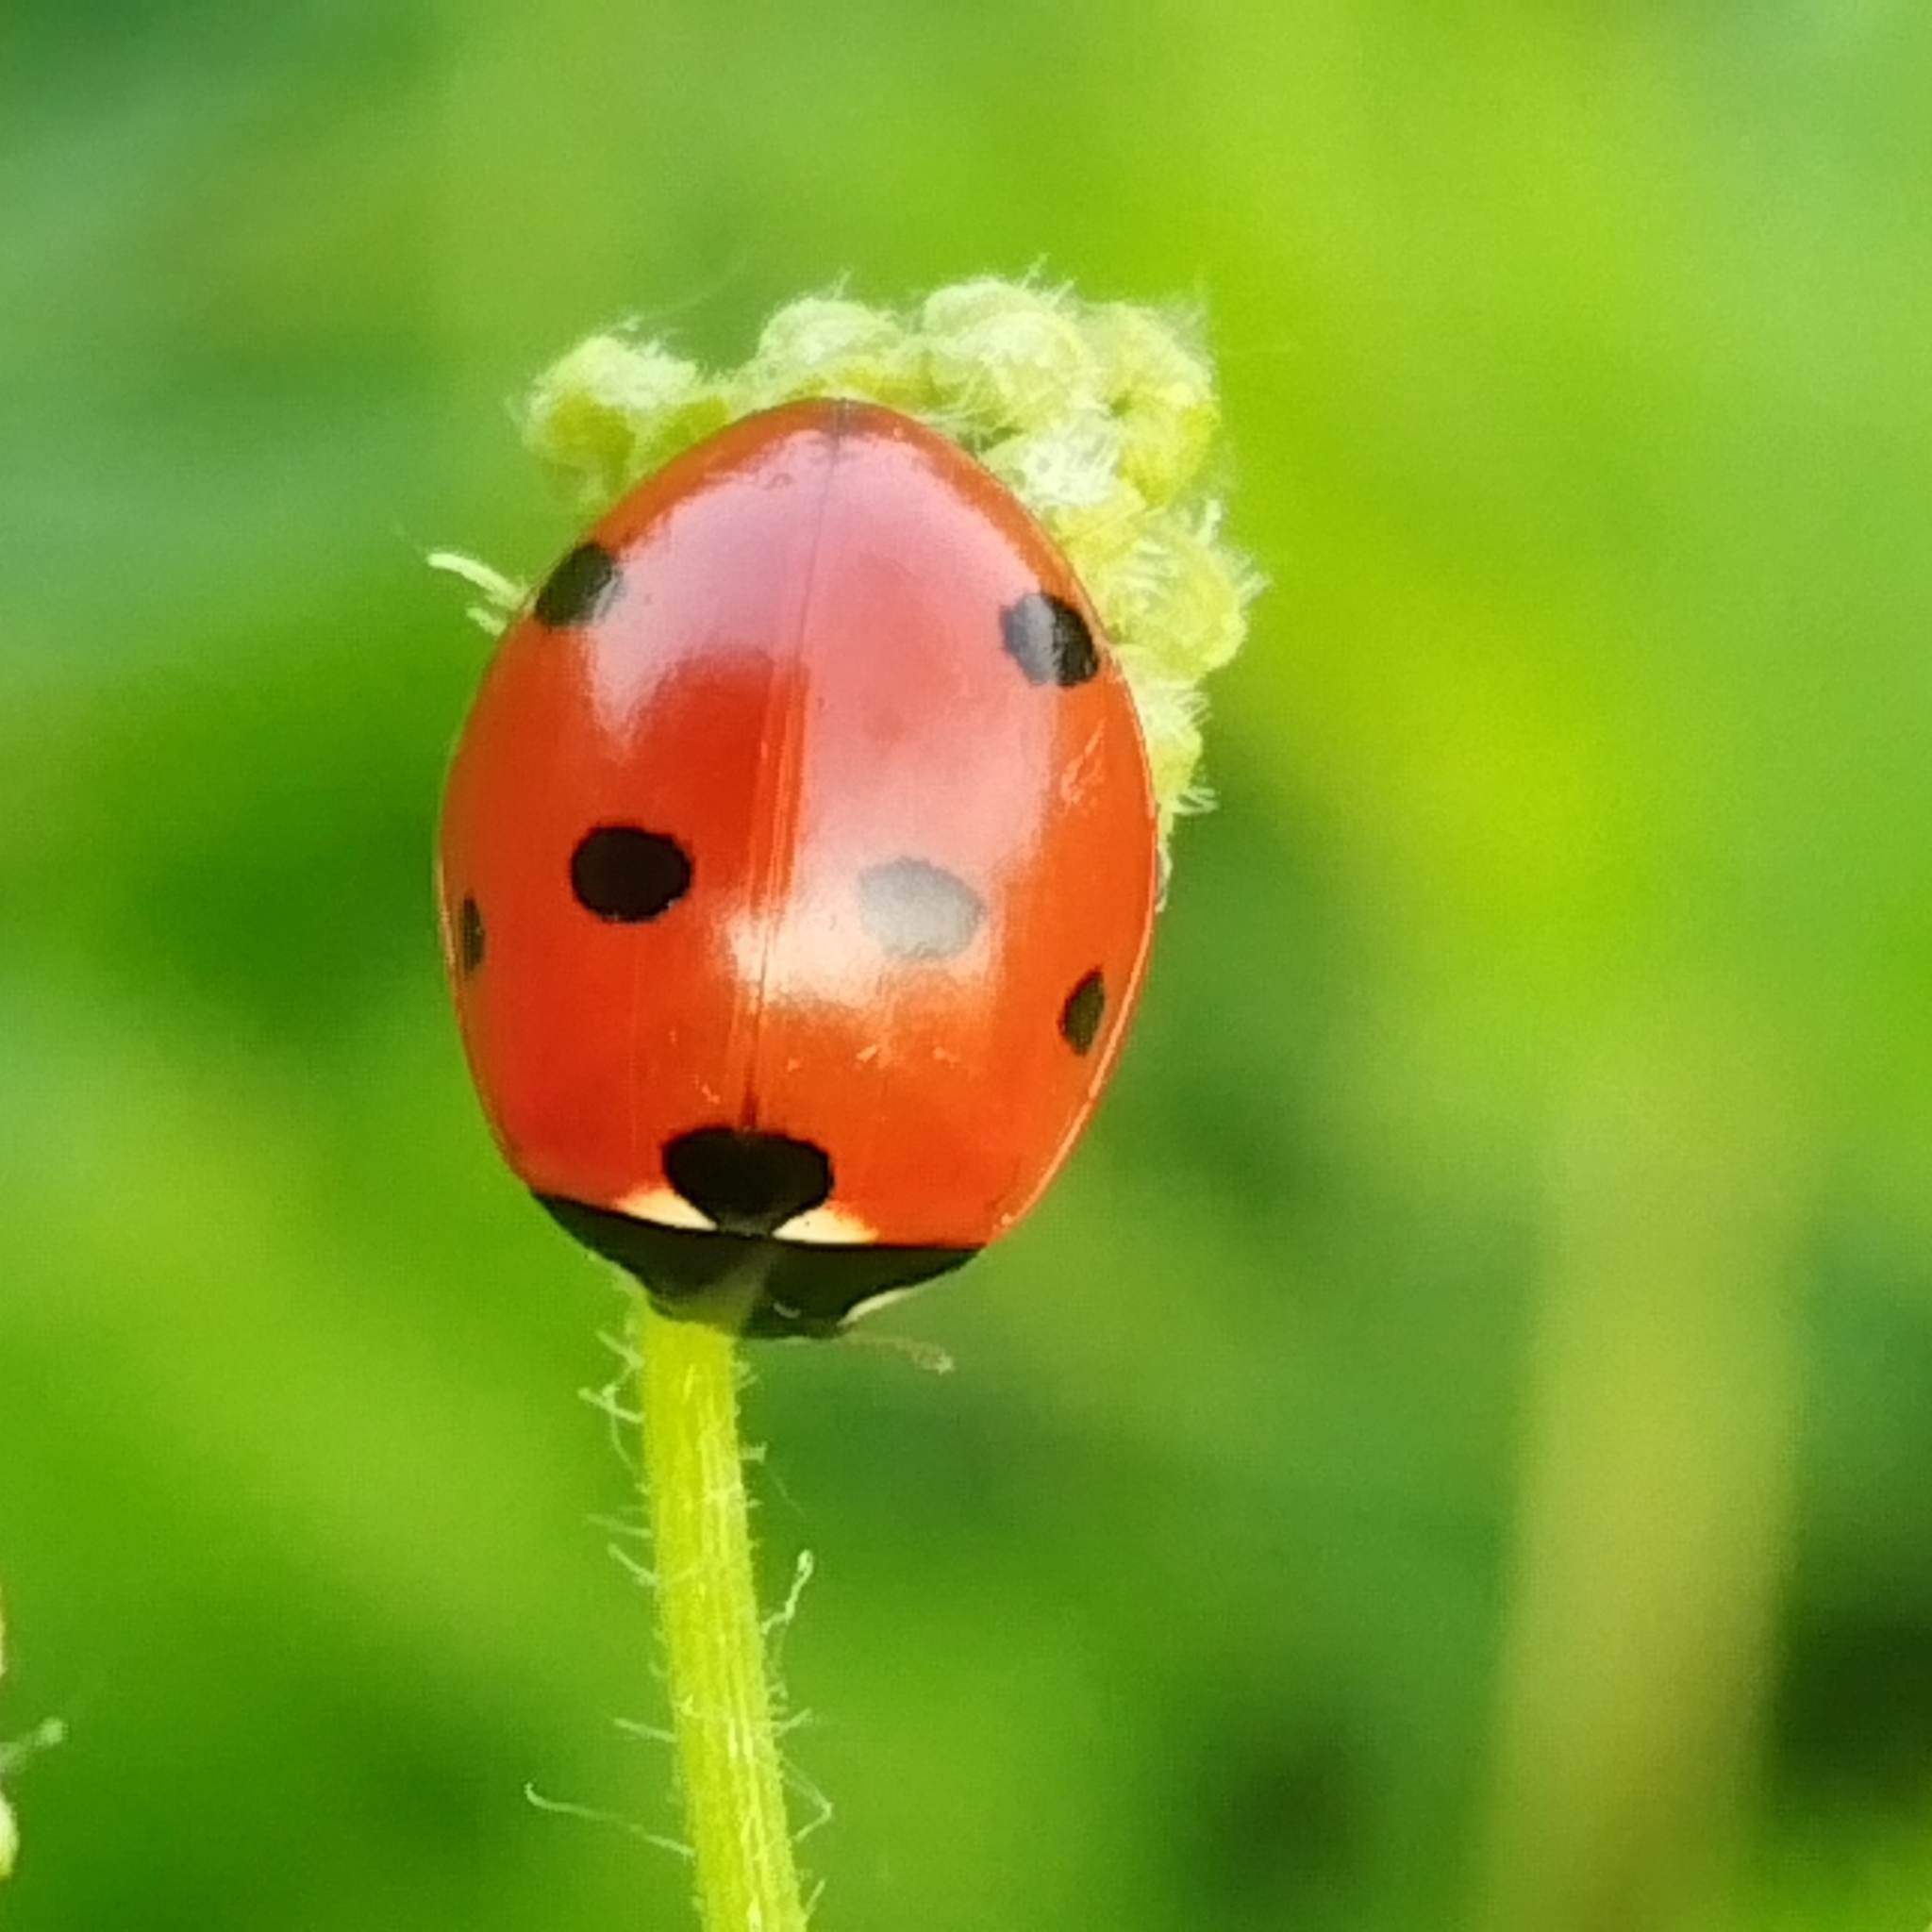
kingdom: Animalia
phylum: Arthropoda
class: Insecta
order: Coleoptera
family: Coccinellidae
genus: Coccinella
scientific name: Coccinella septempunctata
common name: Sevenspotted lady beetle
